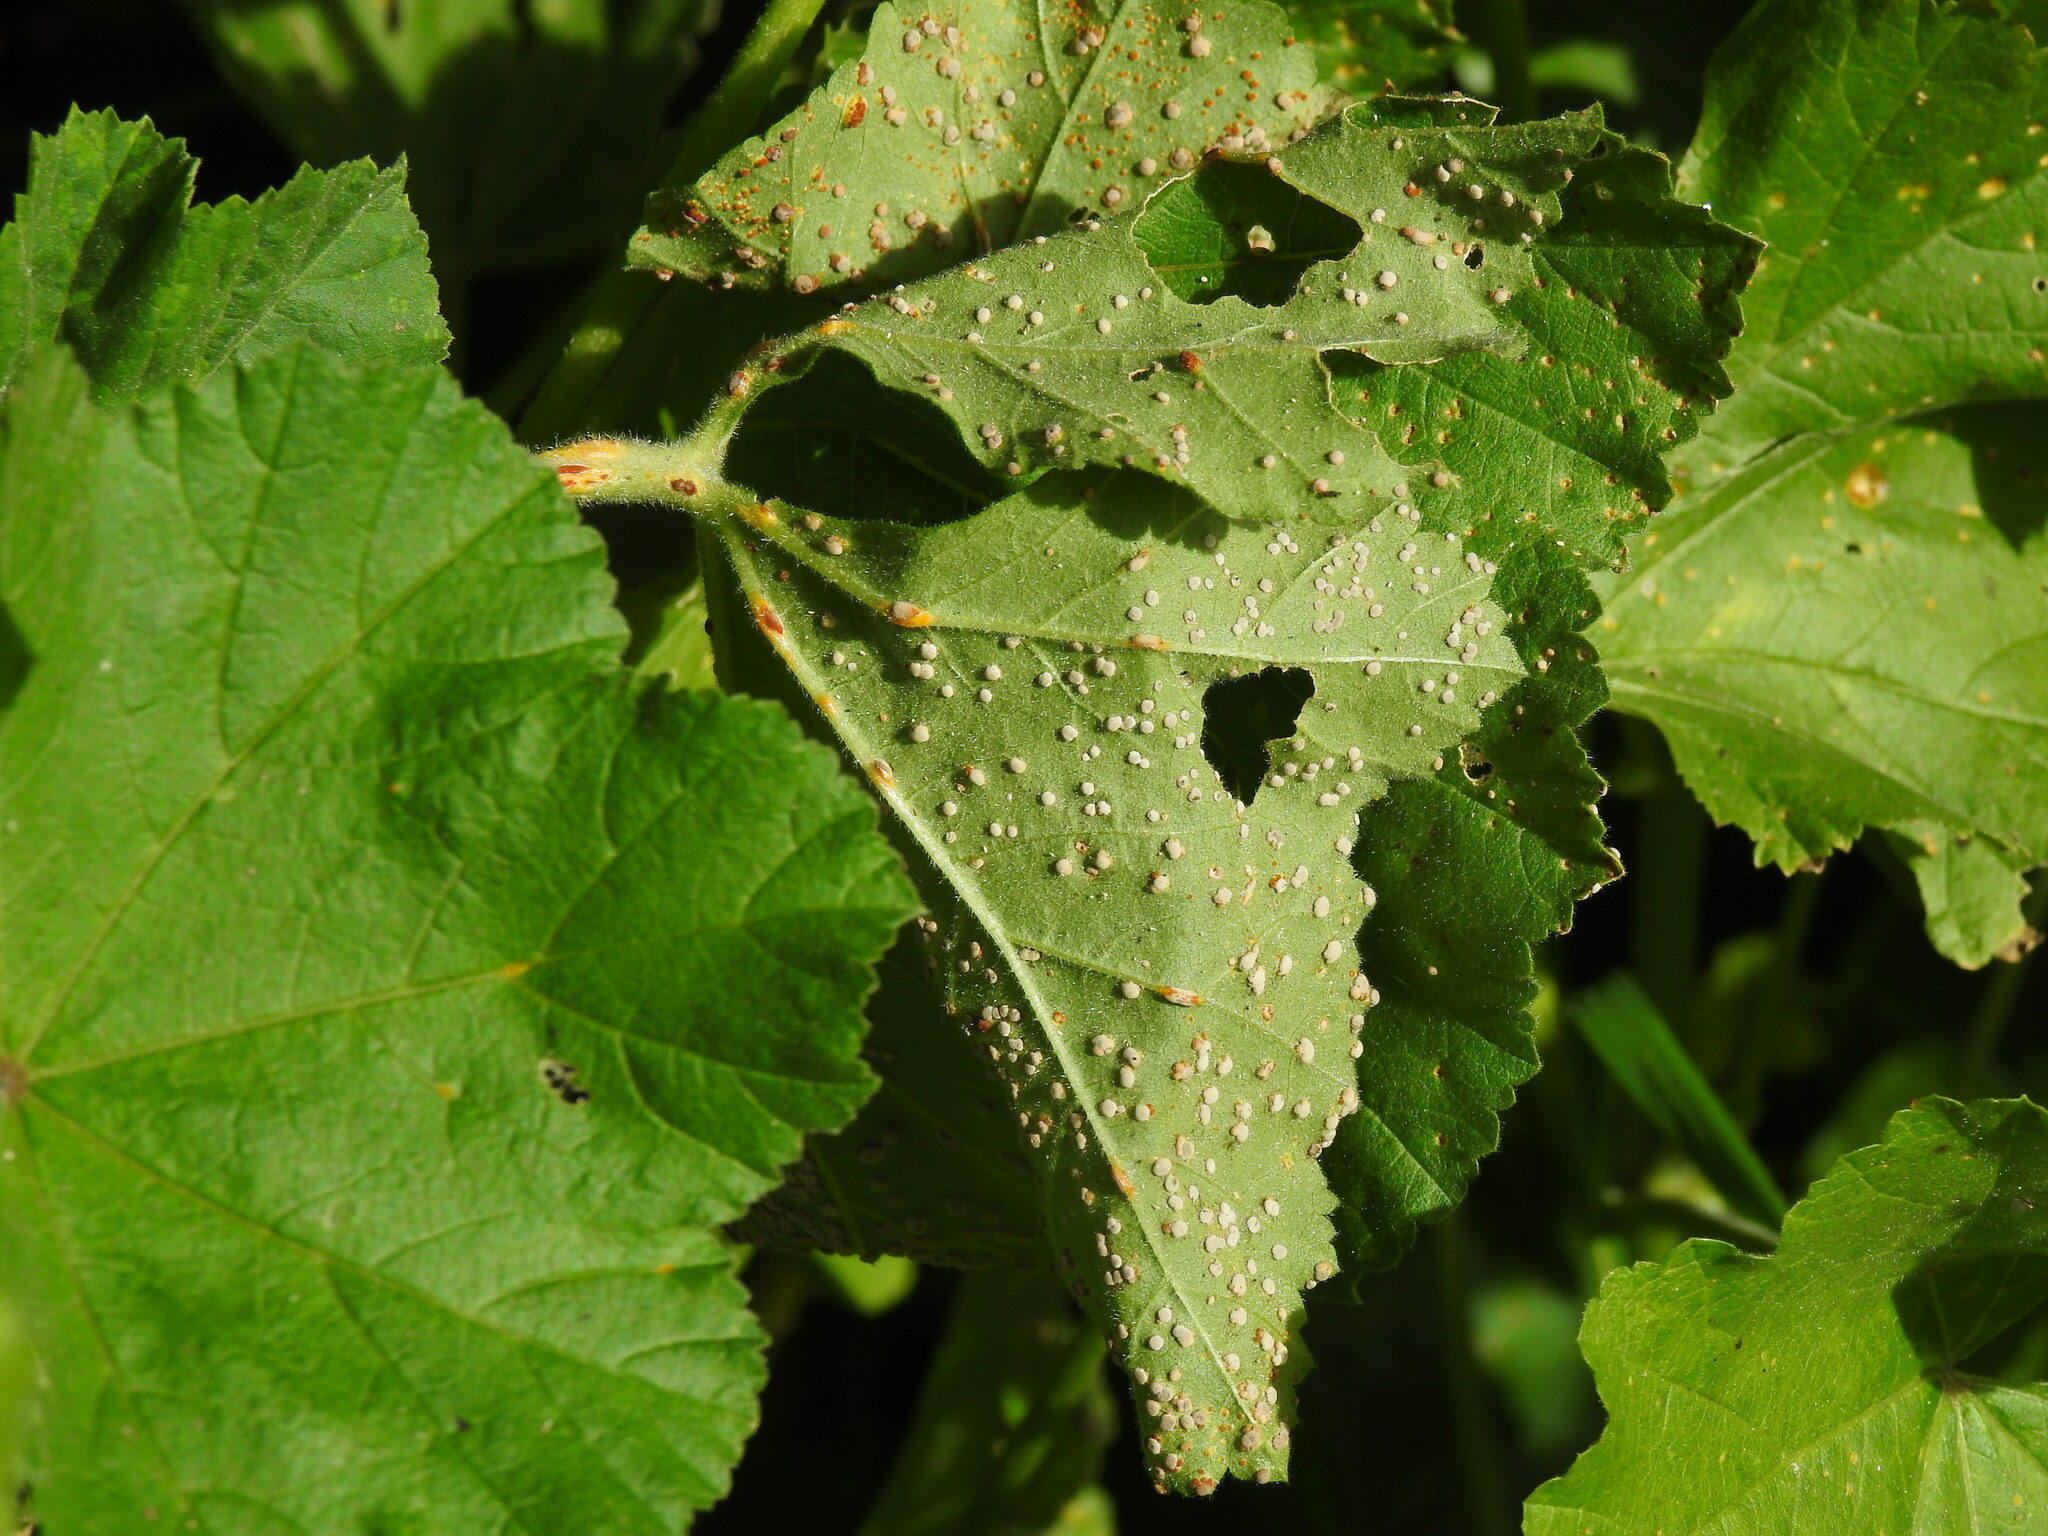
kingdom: Fungi
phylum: Basidiomycota
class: Pucciniomycetes
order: Pucciniales
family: Pucciniaceae
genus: Puccinia
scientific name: Puccinia malvacearum
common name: Hollyhock rust
